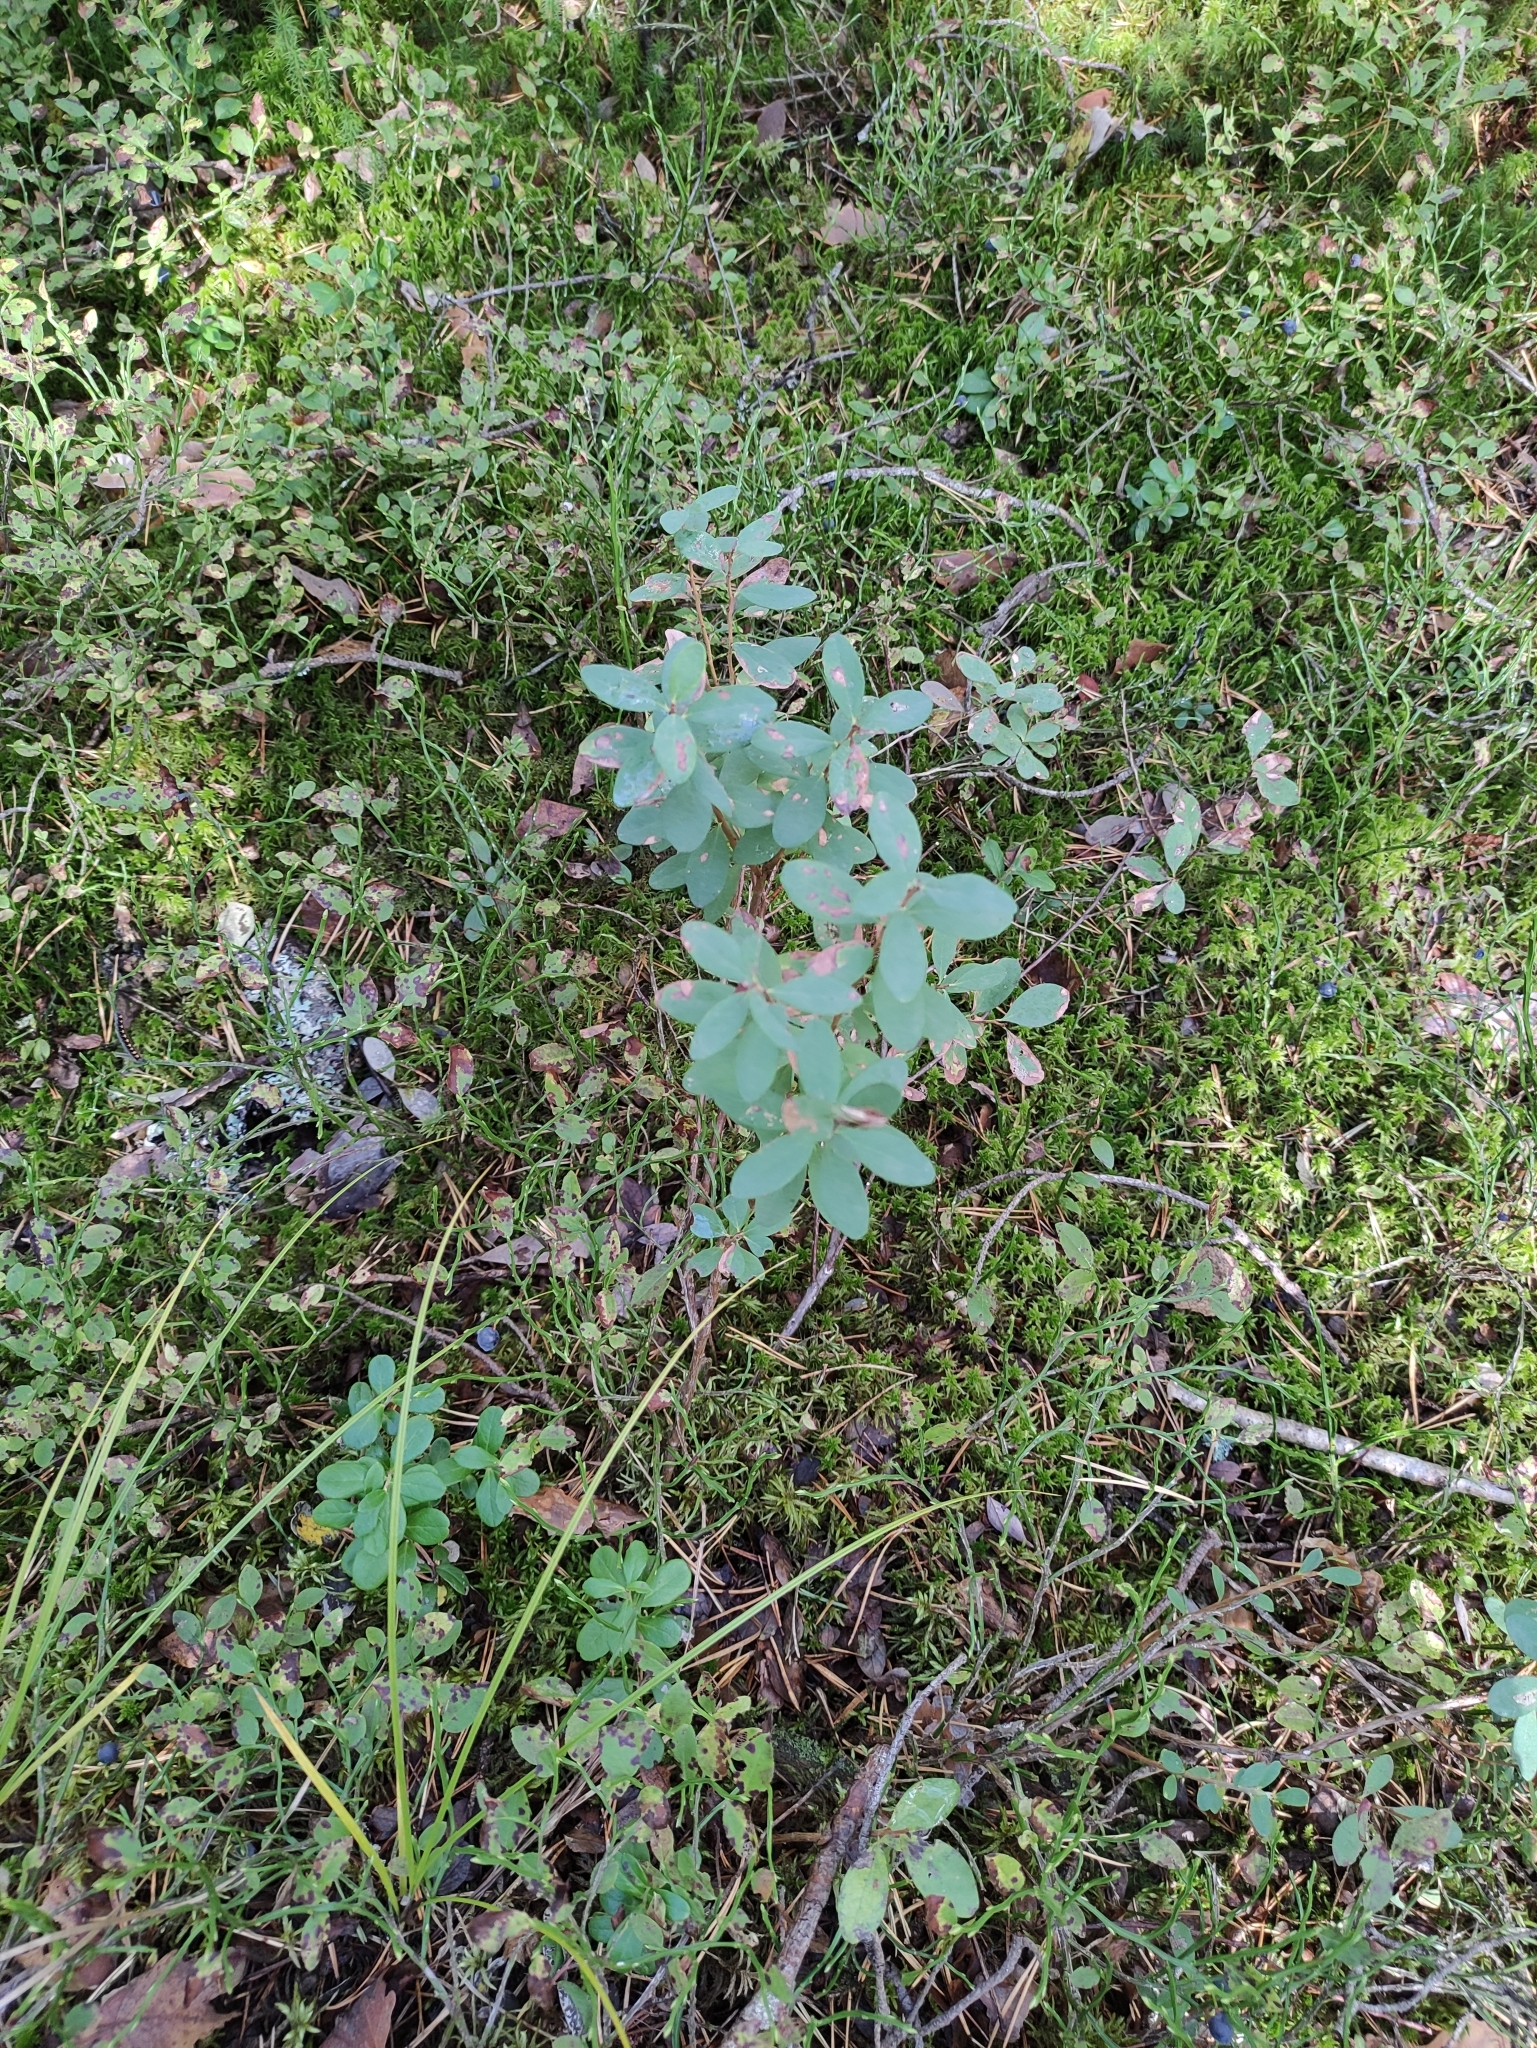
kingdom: Plantae
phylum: Tracheophyta
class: Magnoliopsida
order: Ericales
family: Ericaceae
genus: Vaccinium
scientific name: Vaccinium uliginosum
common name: Bog bilberry
